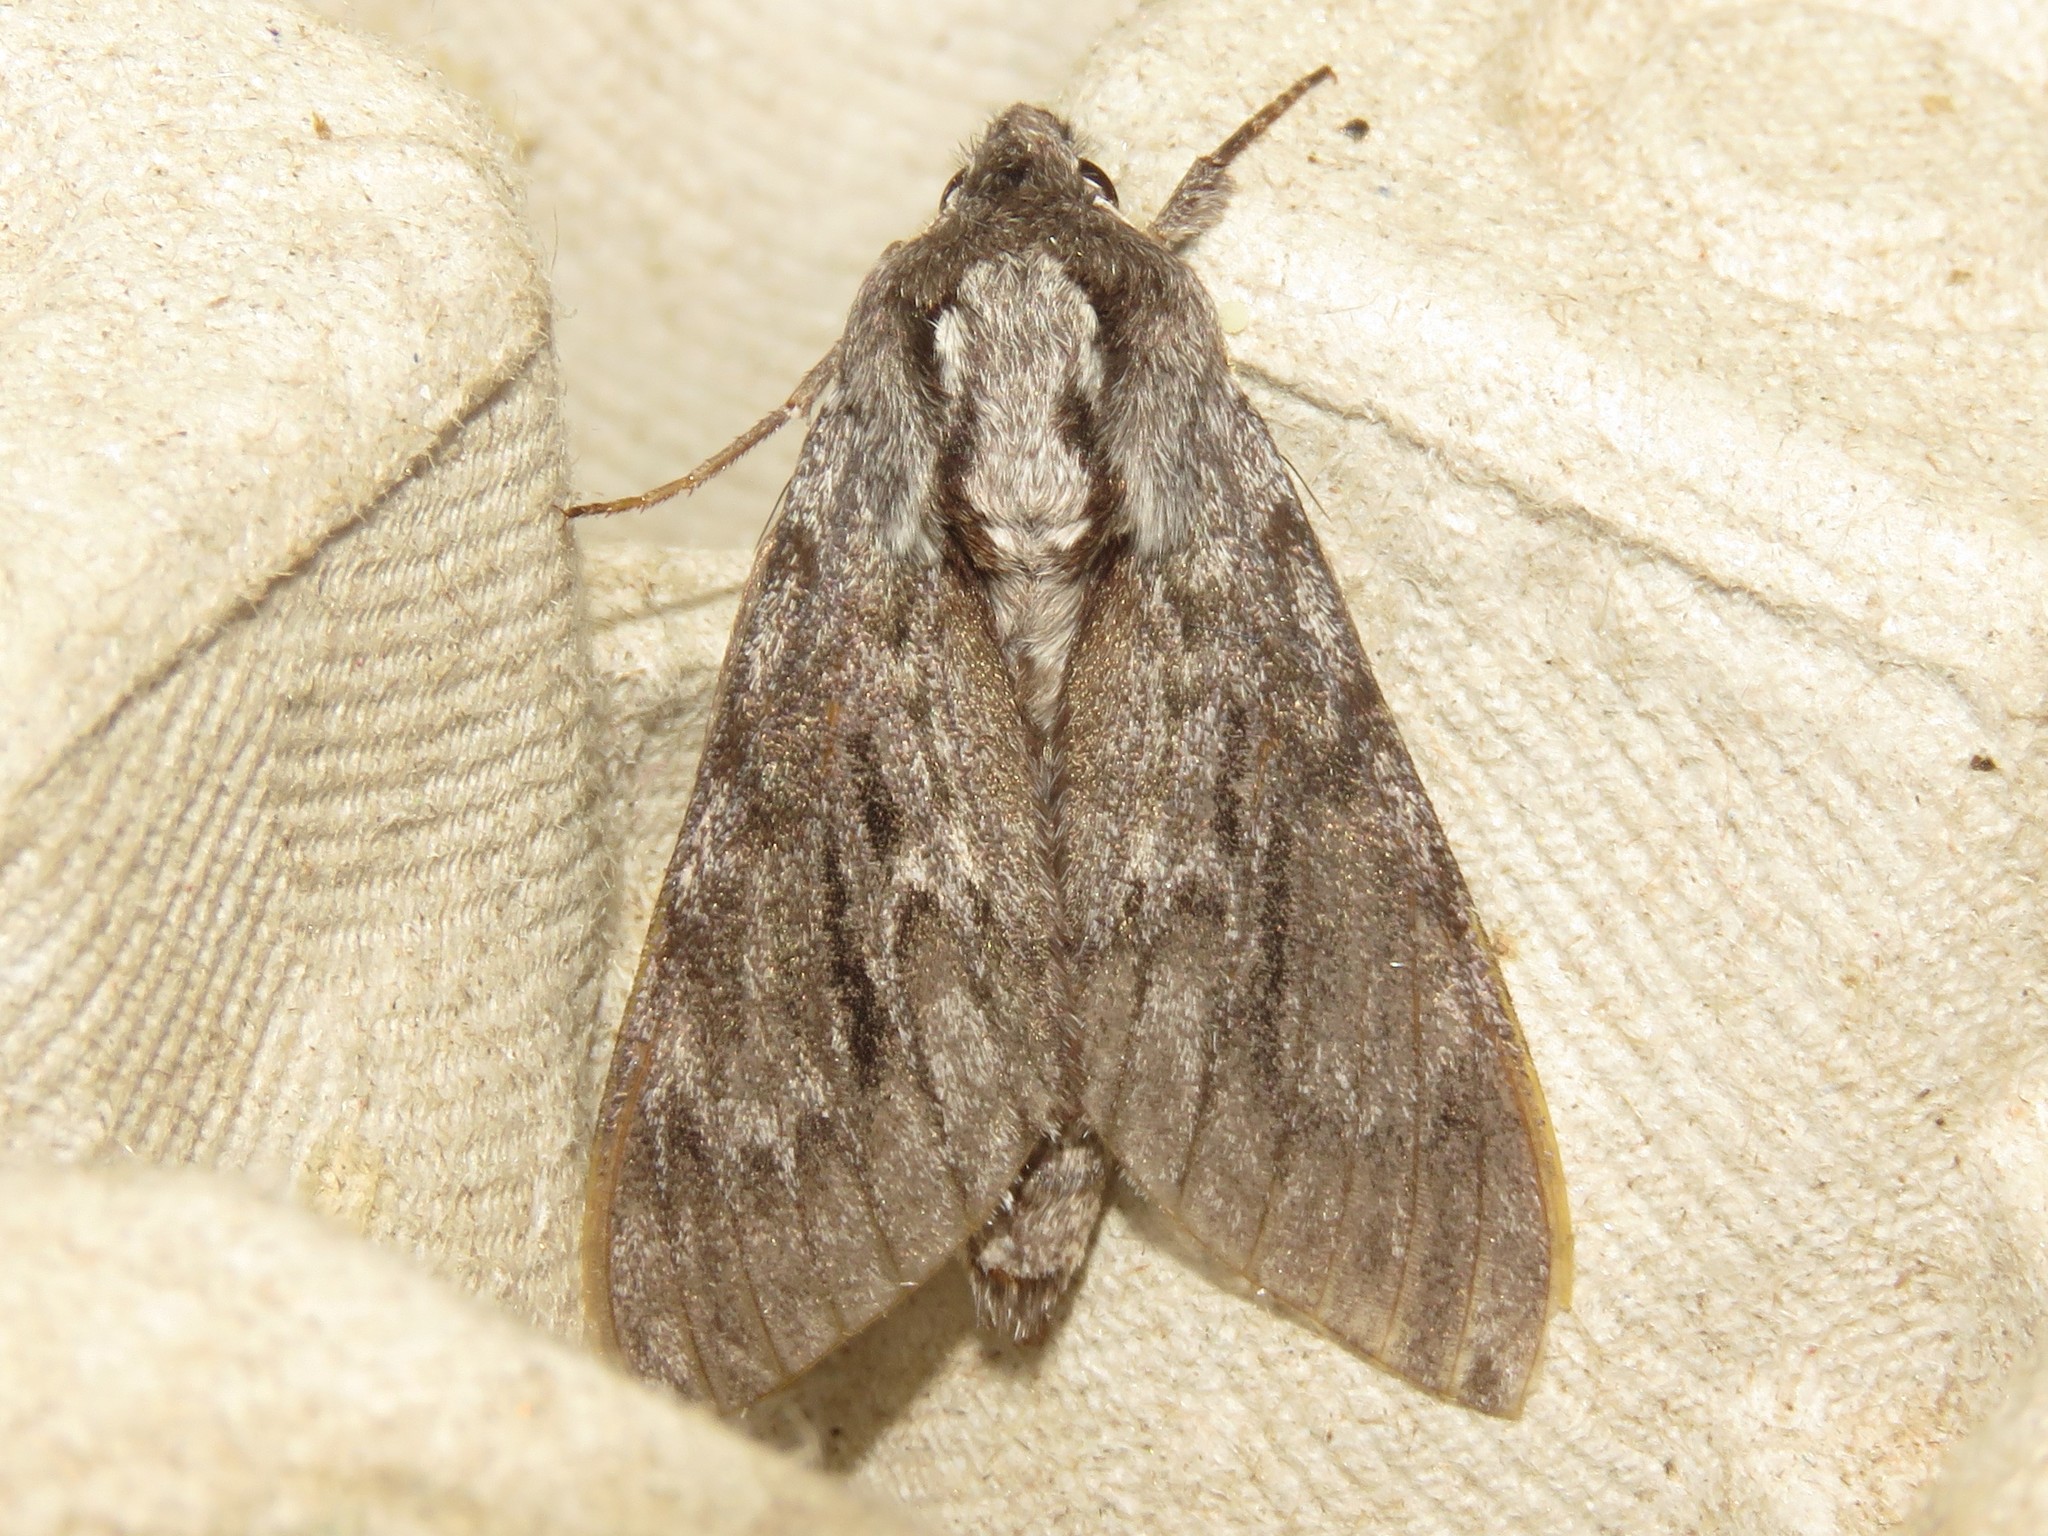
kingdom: Animalia
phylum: Arthropoda
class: Insecta
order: Lepidoptera
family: Sphingidae
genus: Lapara
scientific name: Lapara bombycoides
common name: Northern pine sphinx
